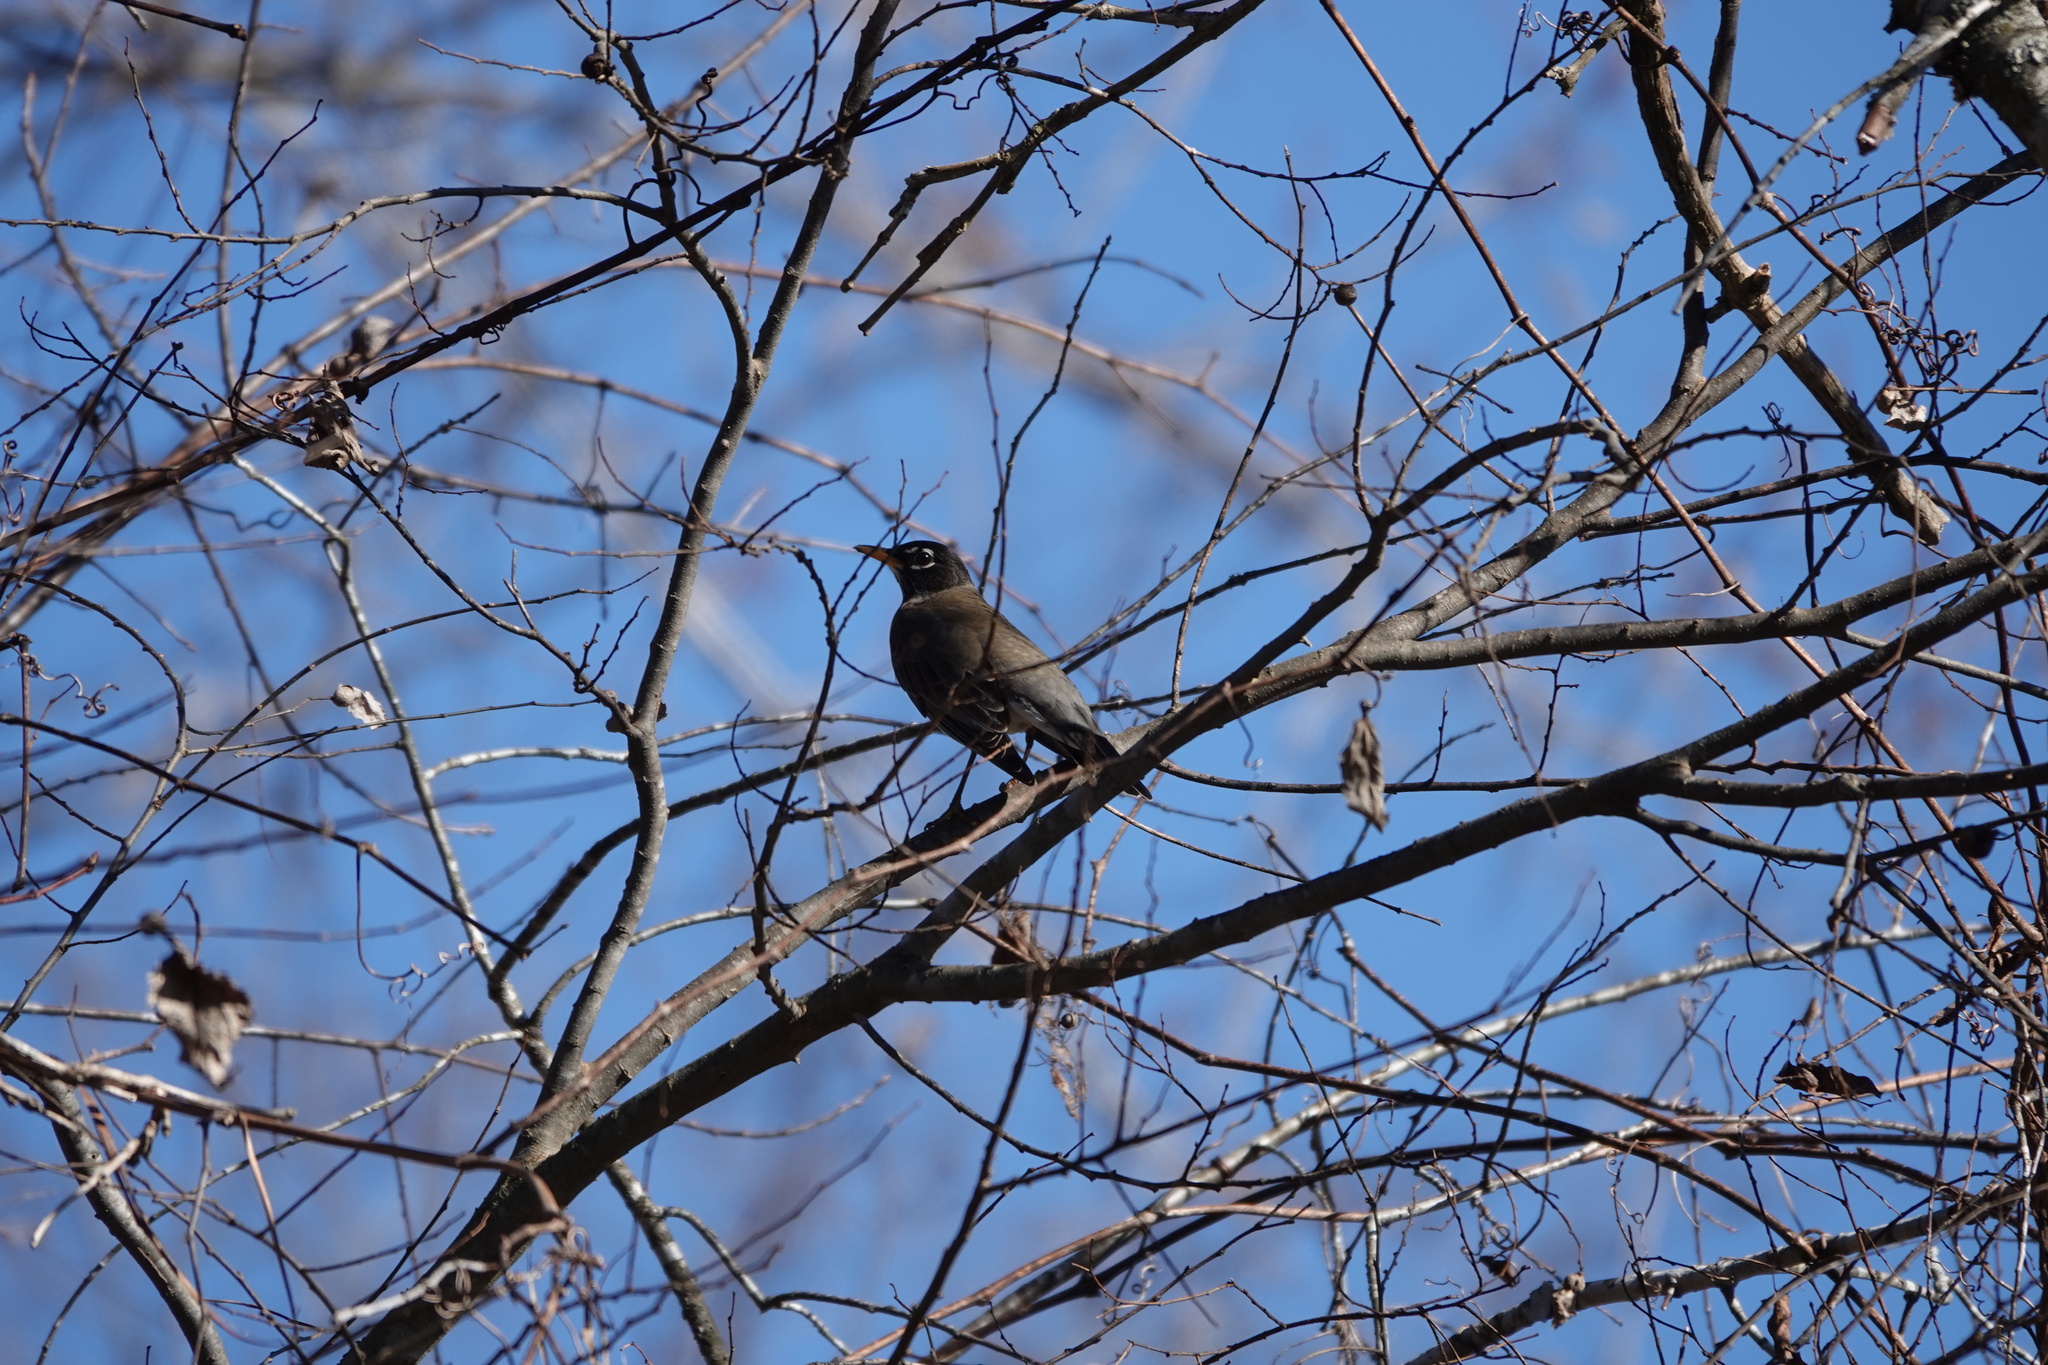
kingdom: Animalia
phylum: Chordata
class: Aves
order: Passeriformes
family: Turdidae
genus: Turdus
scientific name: Turdus migratorius
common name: American robin
